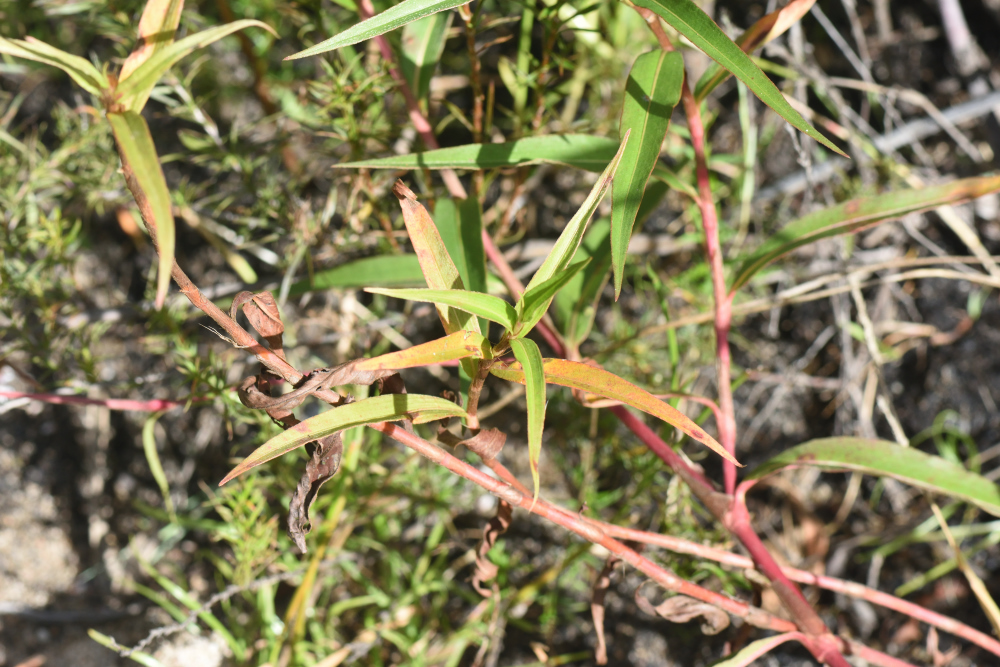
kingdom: Plantae
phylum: Tracheophyta
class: Magnoliopsida
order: Caryophyllales
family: Polygonaceae
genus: Persicaria
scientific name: Persicaria madagascariensis
